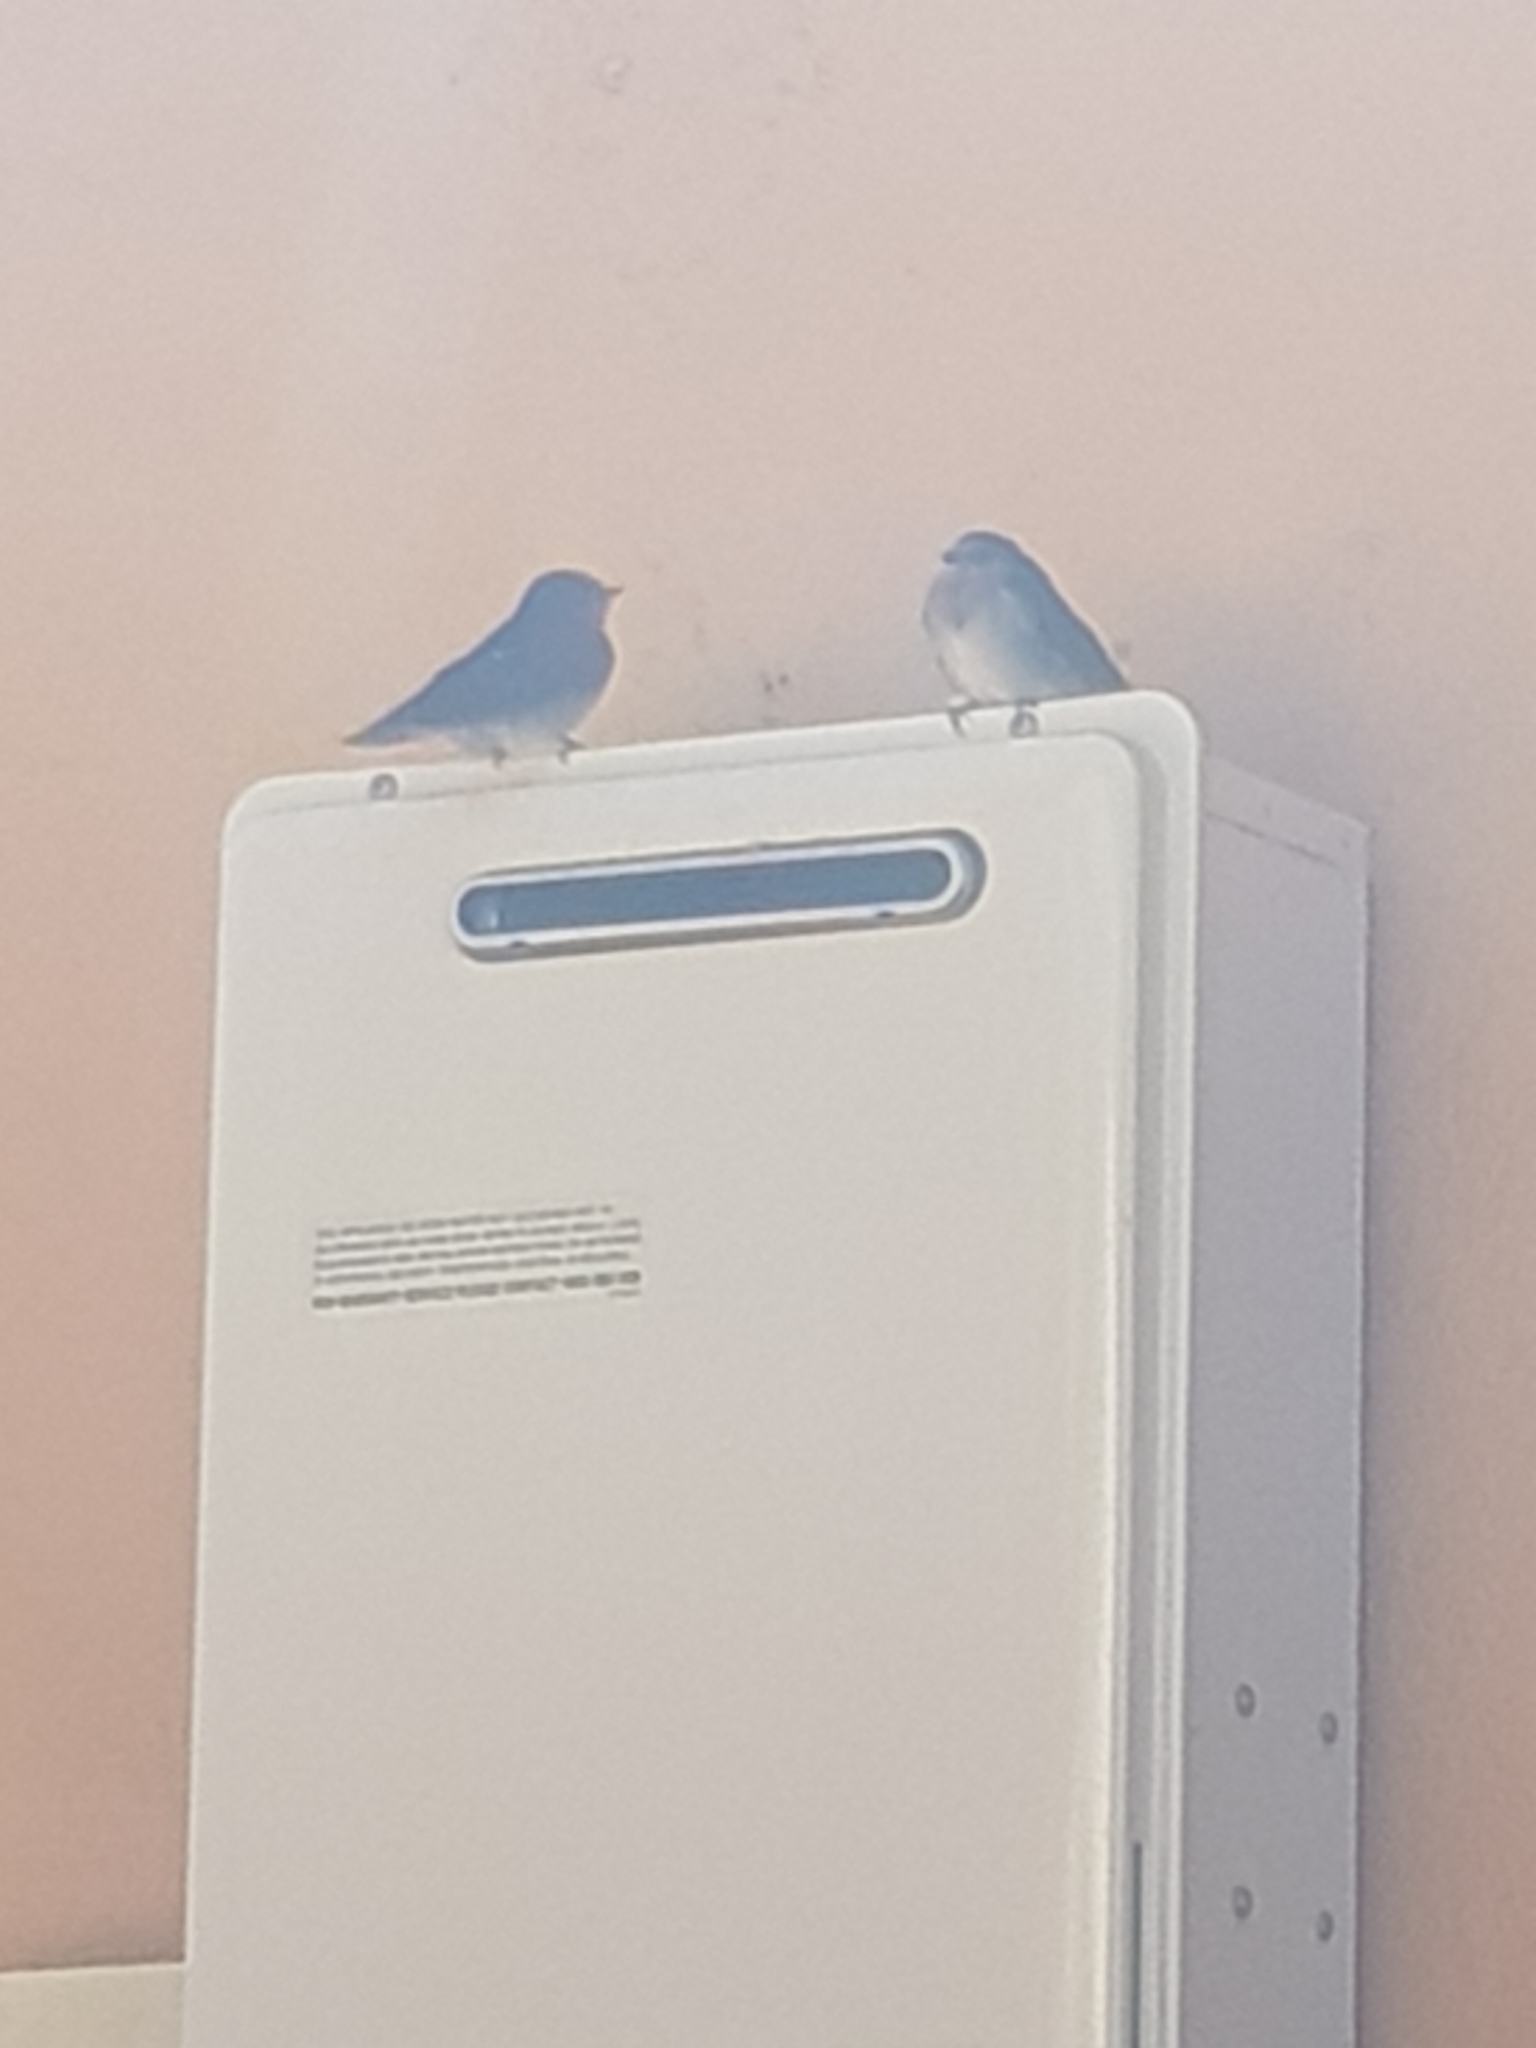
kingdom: Animalia
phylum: Chordata
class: Aves
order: Passeriformes
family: Hirundinidae
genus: Hirundo
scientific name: Hirundo neoxena
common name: Welcome swallow
